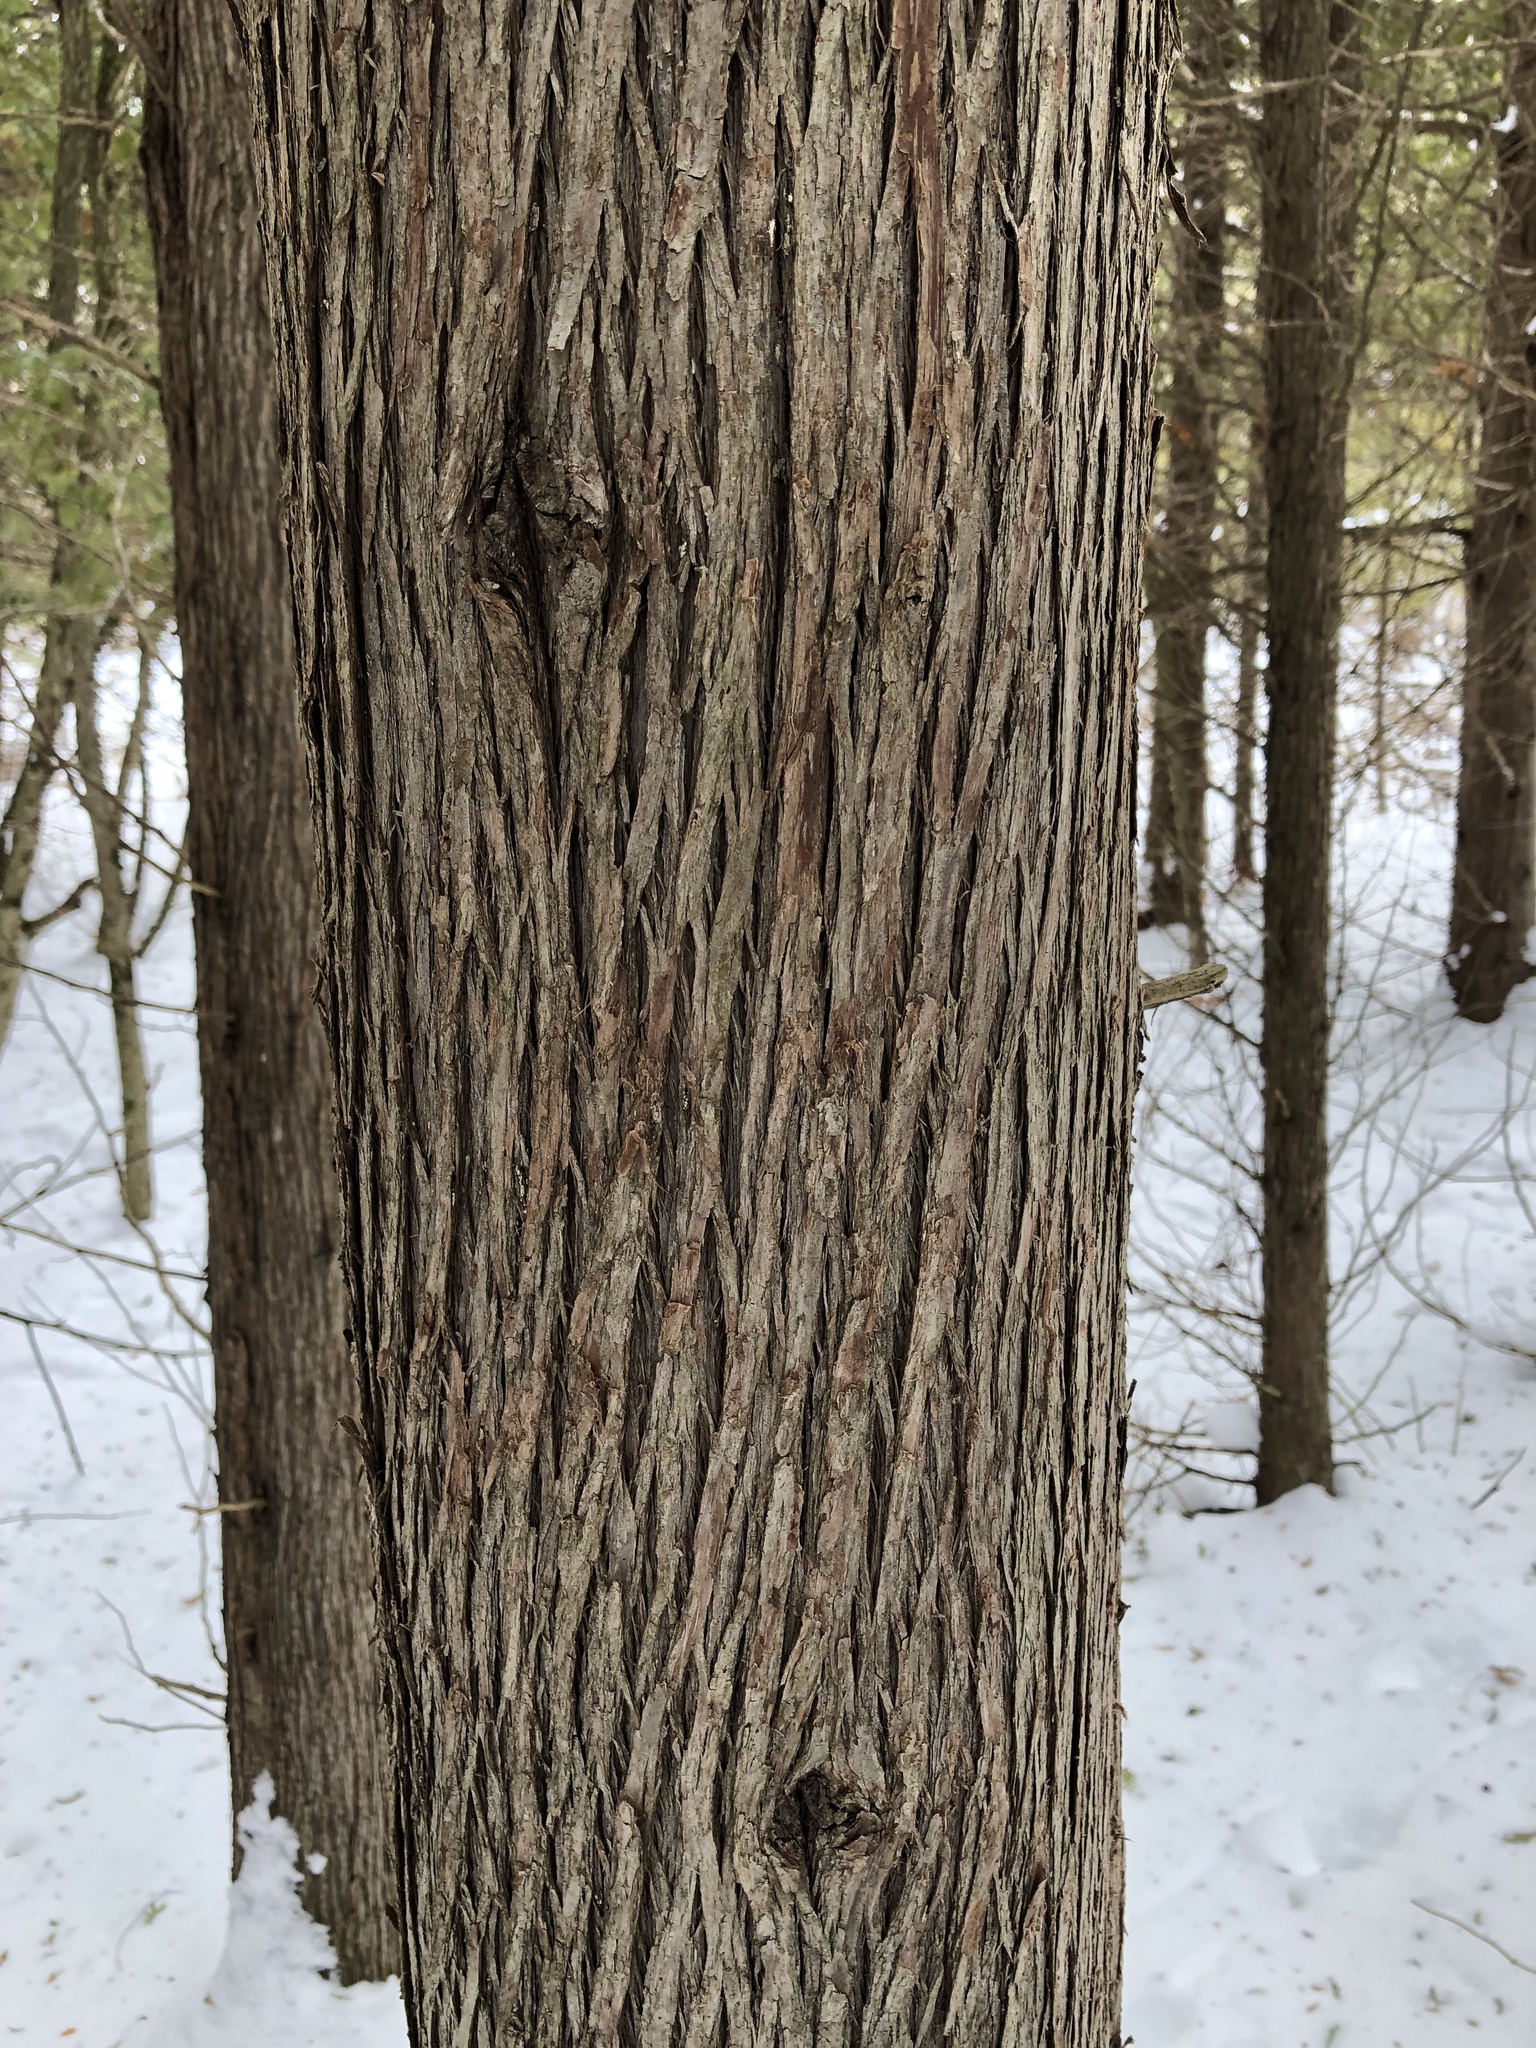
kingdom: Plantae
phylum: Tracheophyta
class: Pinopsida
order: Pinales
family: Cupressaceae
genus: Thuja
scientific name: Thuja occidentalis
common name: Northern white-cedar
